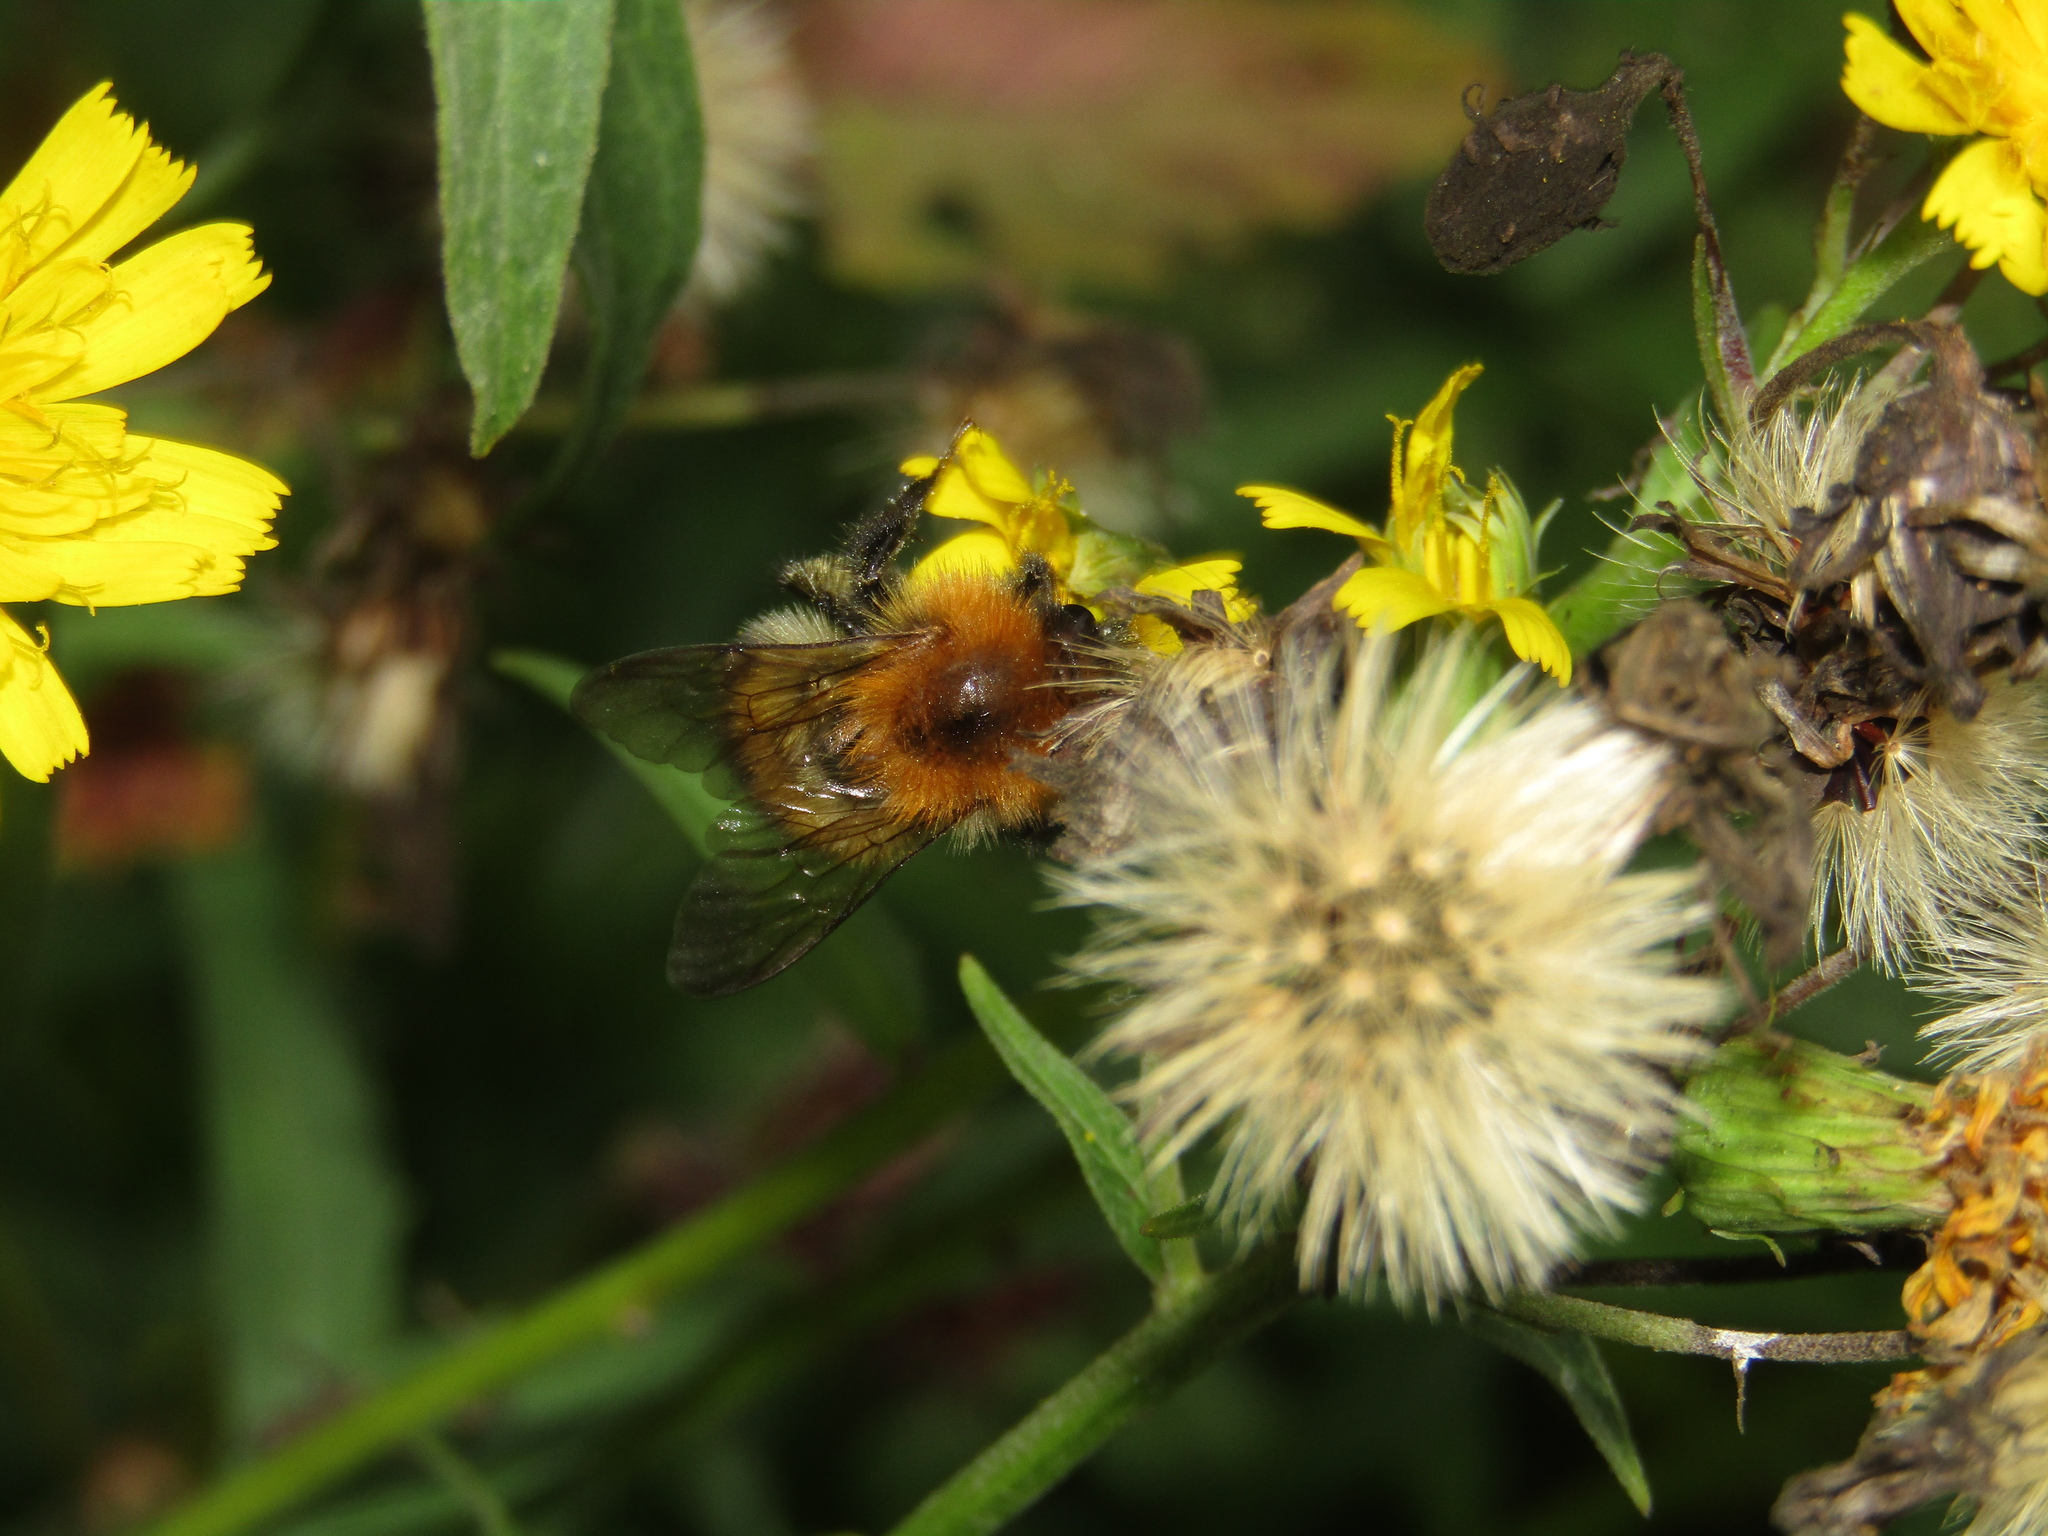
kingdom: Animalia
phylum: Arthropoda
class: Insecta
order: Hymenoptera
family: Apidae
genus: Bombus
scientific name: Bombus pascuorum
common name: Common carder bee
